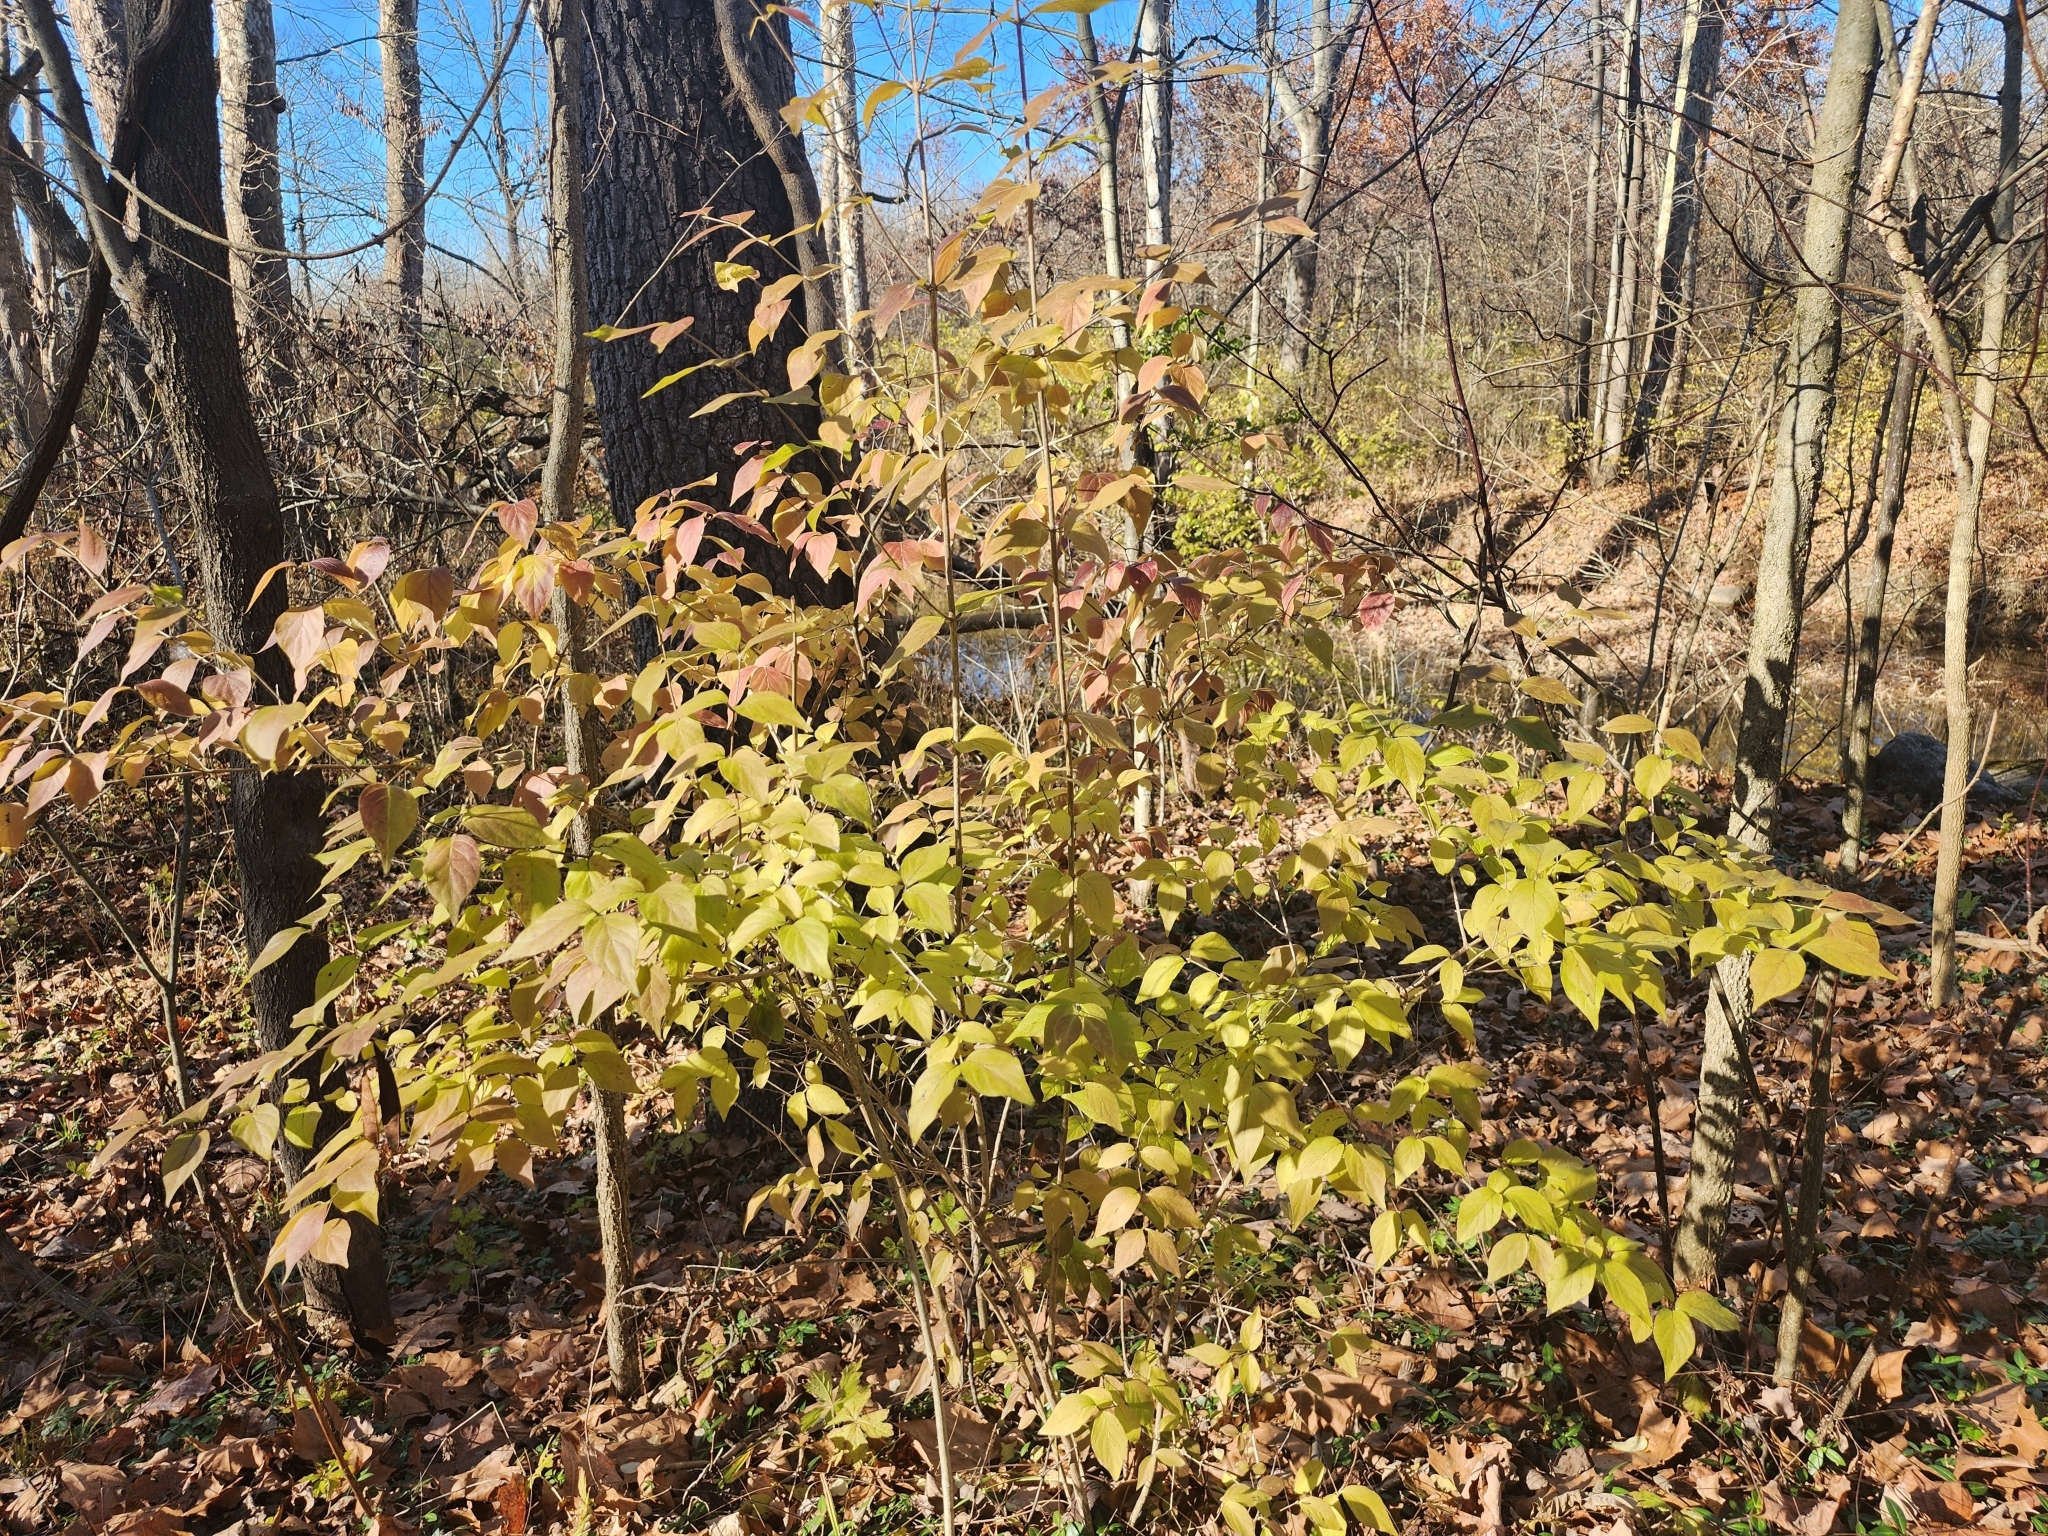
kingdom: Plantae
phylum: Tracheophyta
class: Magnoliopsida
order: Dipsacales
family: Caprifoliaceae
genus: Lonicera
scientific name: Lonicera maackii
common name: Amur honeysuckle
